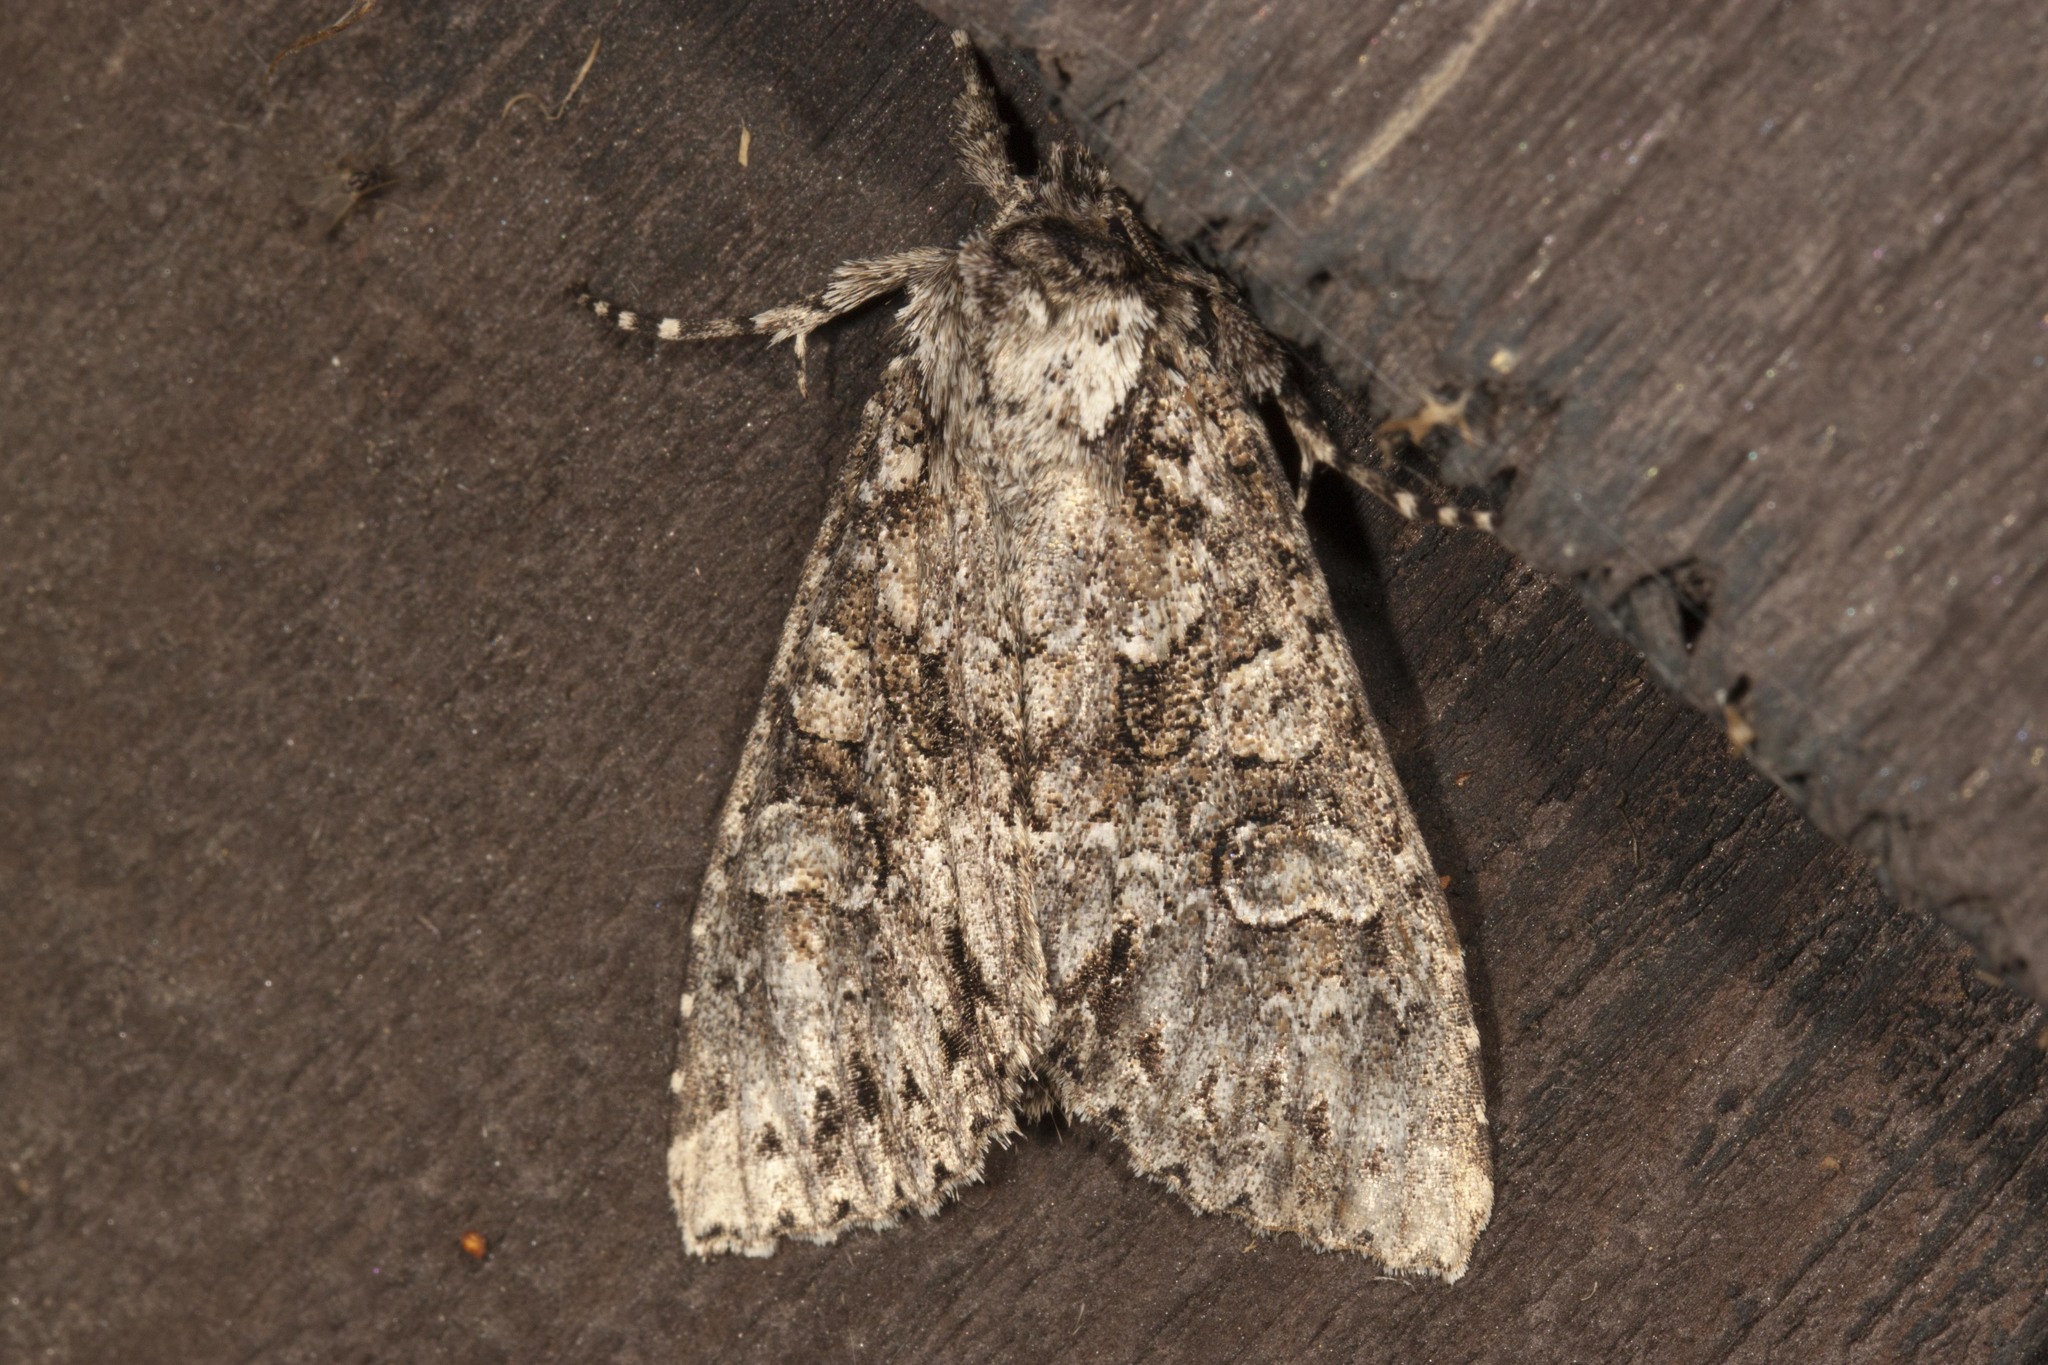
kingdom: Animalia
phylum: Arthropoda
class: Insecta
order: Lepidoptera
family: Noctuidae
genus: Polia
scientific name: Polia imbrifera
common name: Cloudy arches moth
